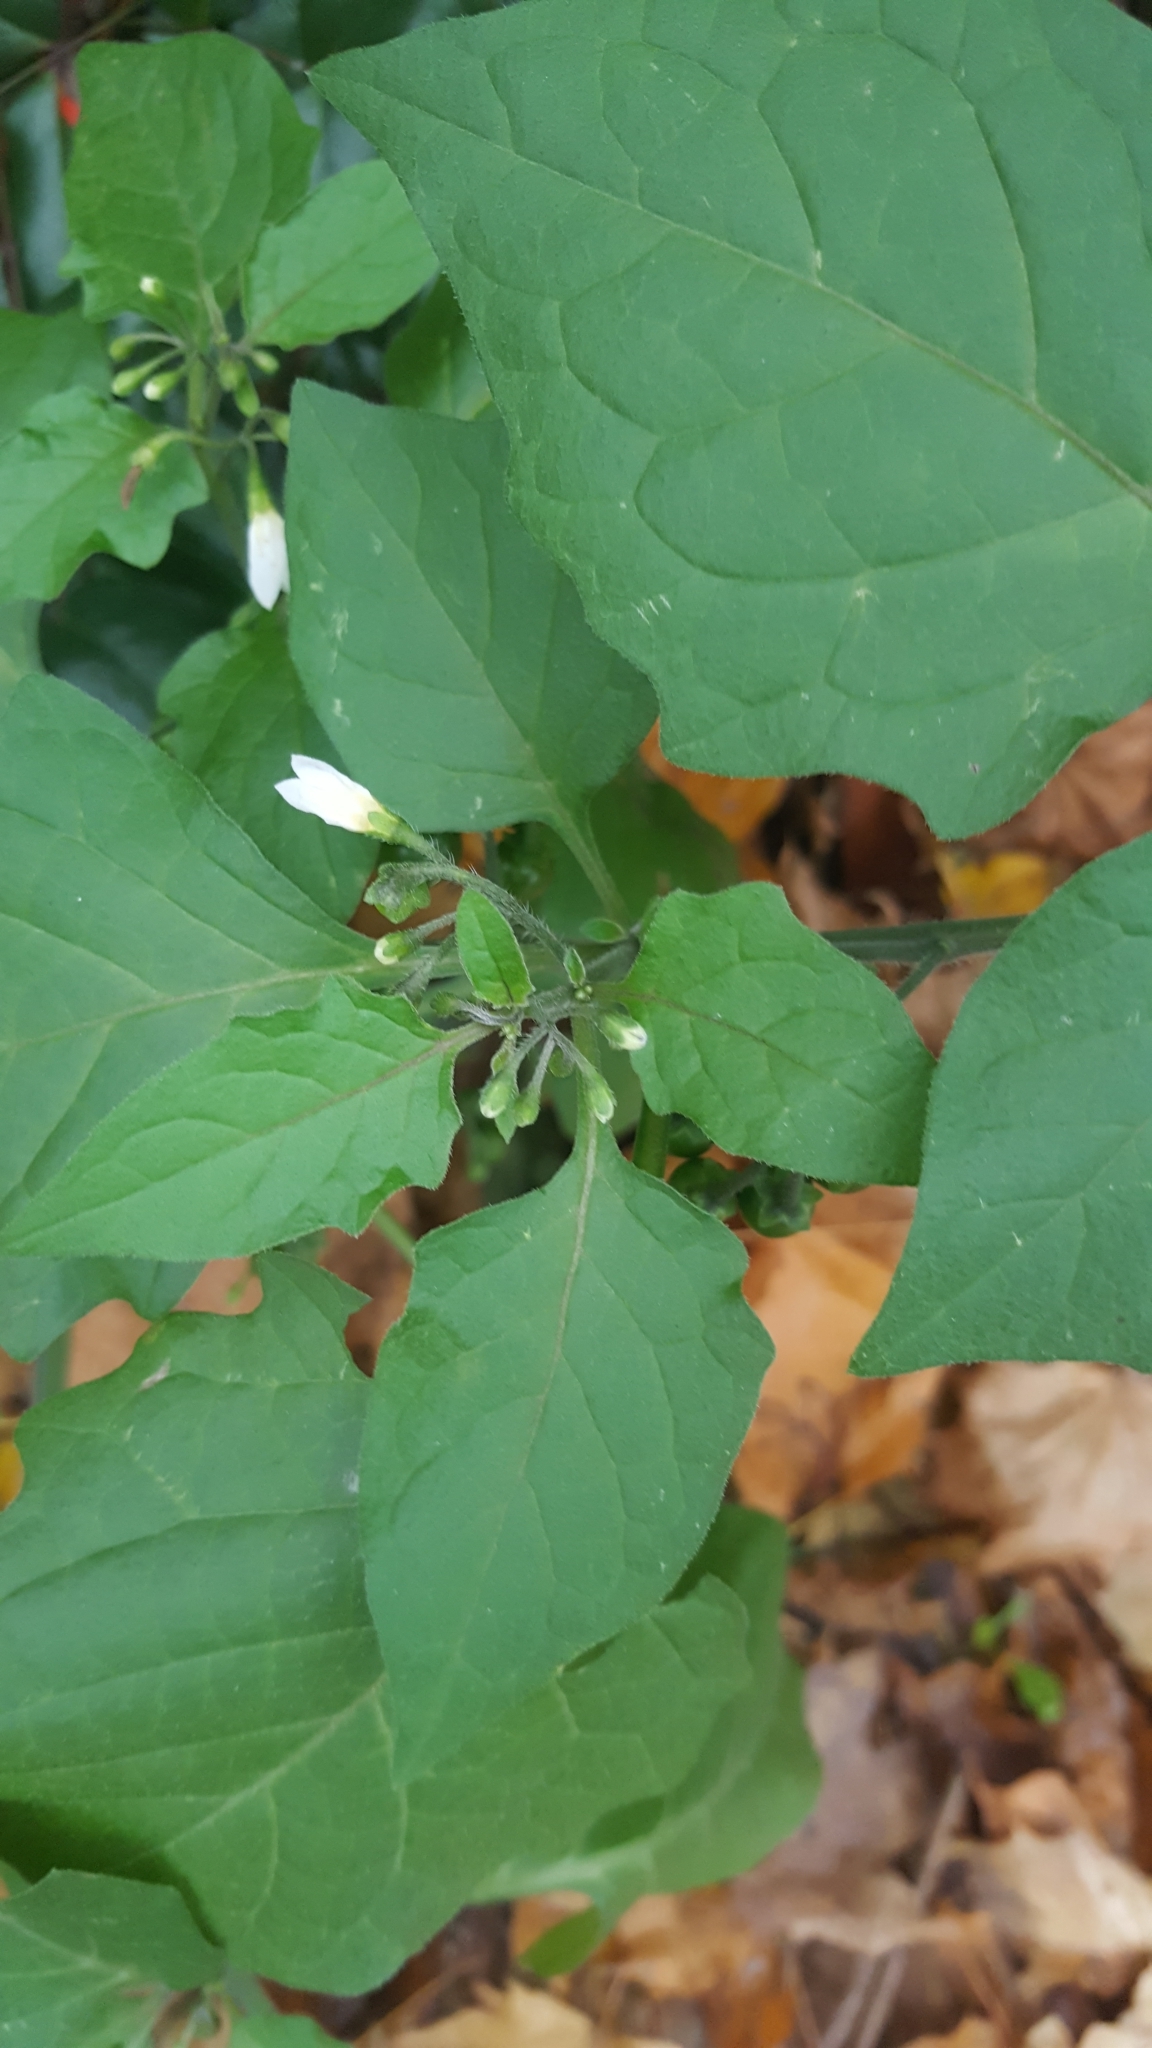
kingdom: Plantae
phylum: Tracheophyta
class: Magnoliopsida
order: Solanales
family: Solanaceae
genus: Solanum
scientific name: Solanum nigrum
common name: Black nightshade
